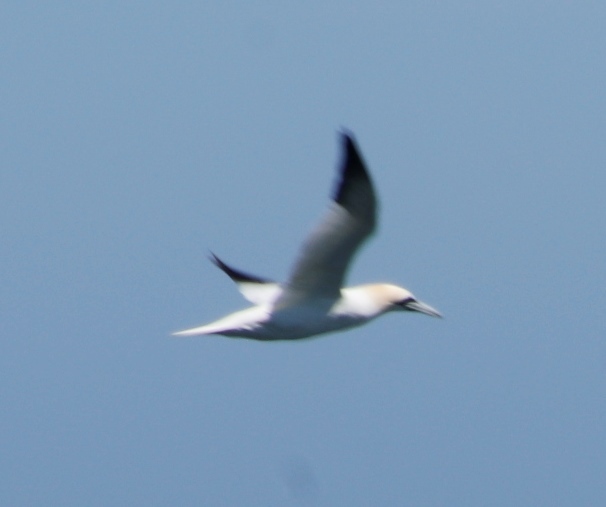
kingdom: Animalia
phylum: Chordata
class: Aves
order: Suliformes
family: Sulidae
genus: Morus
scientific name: Morus bassanus
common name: Northern gannet
